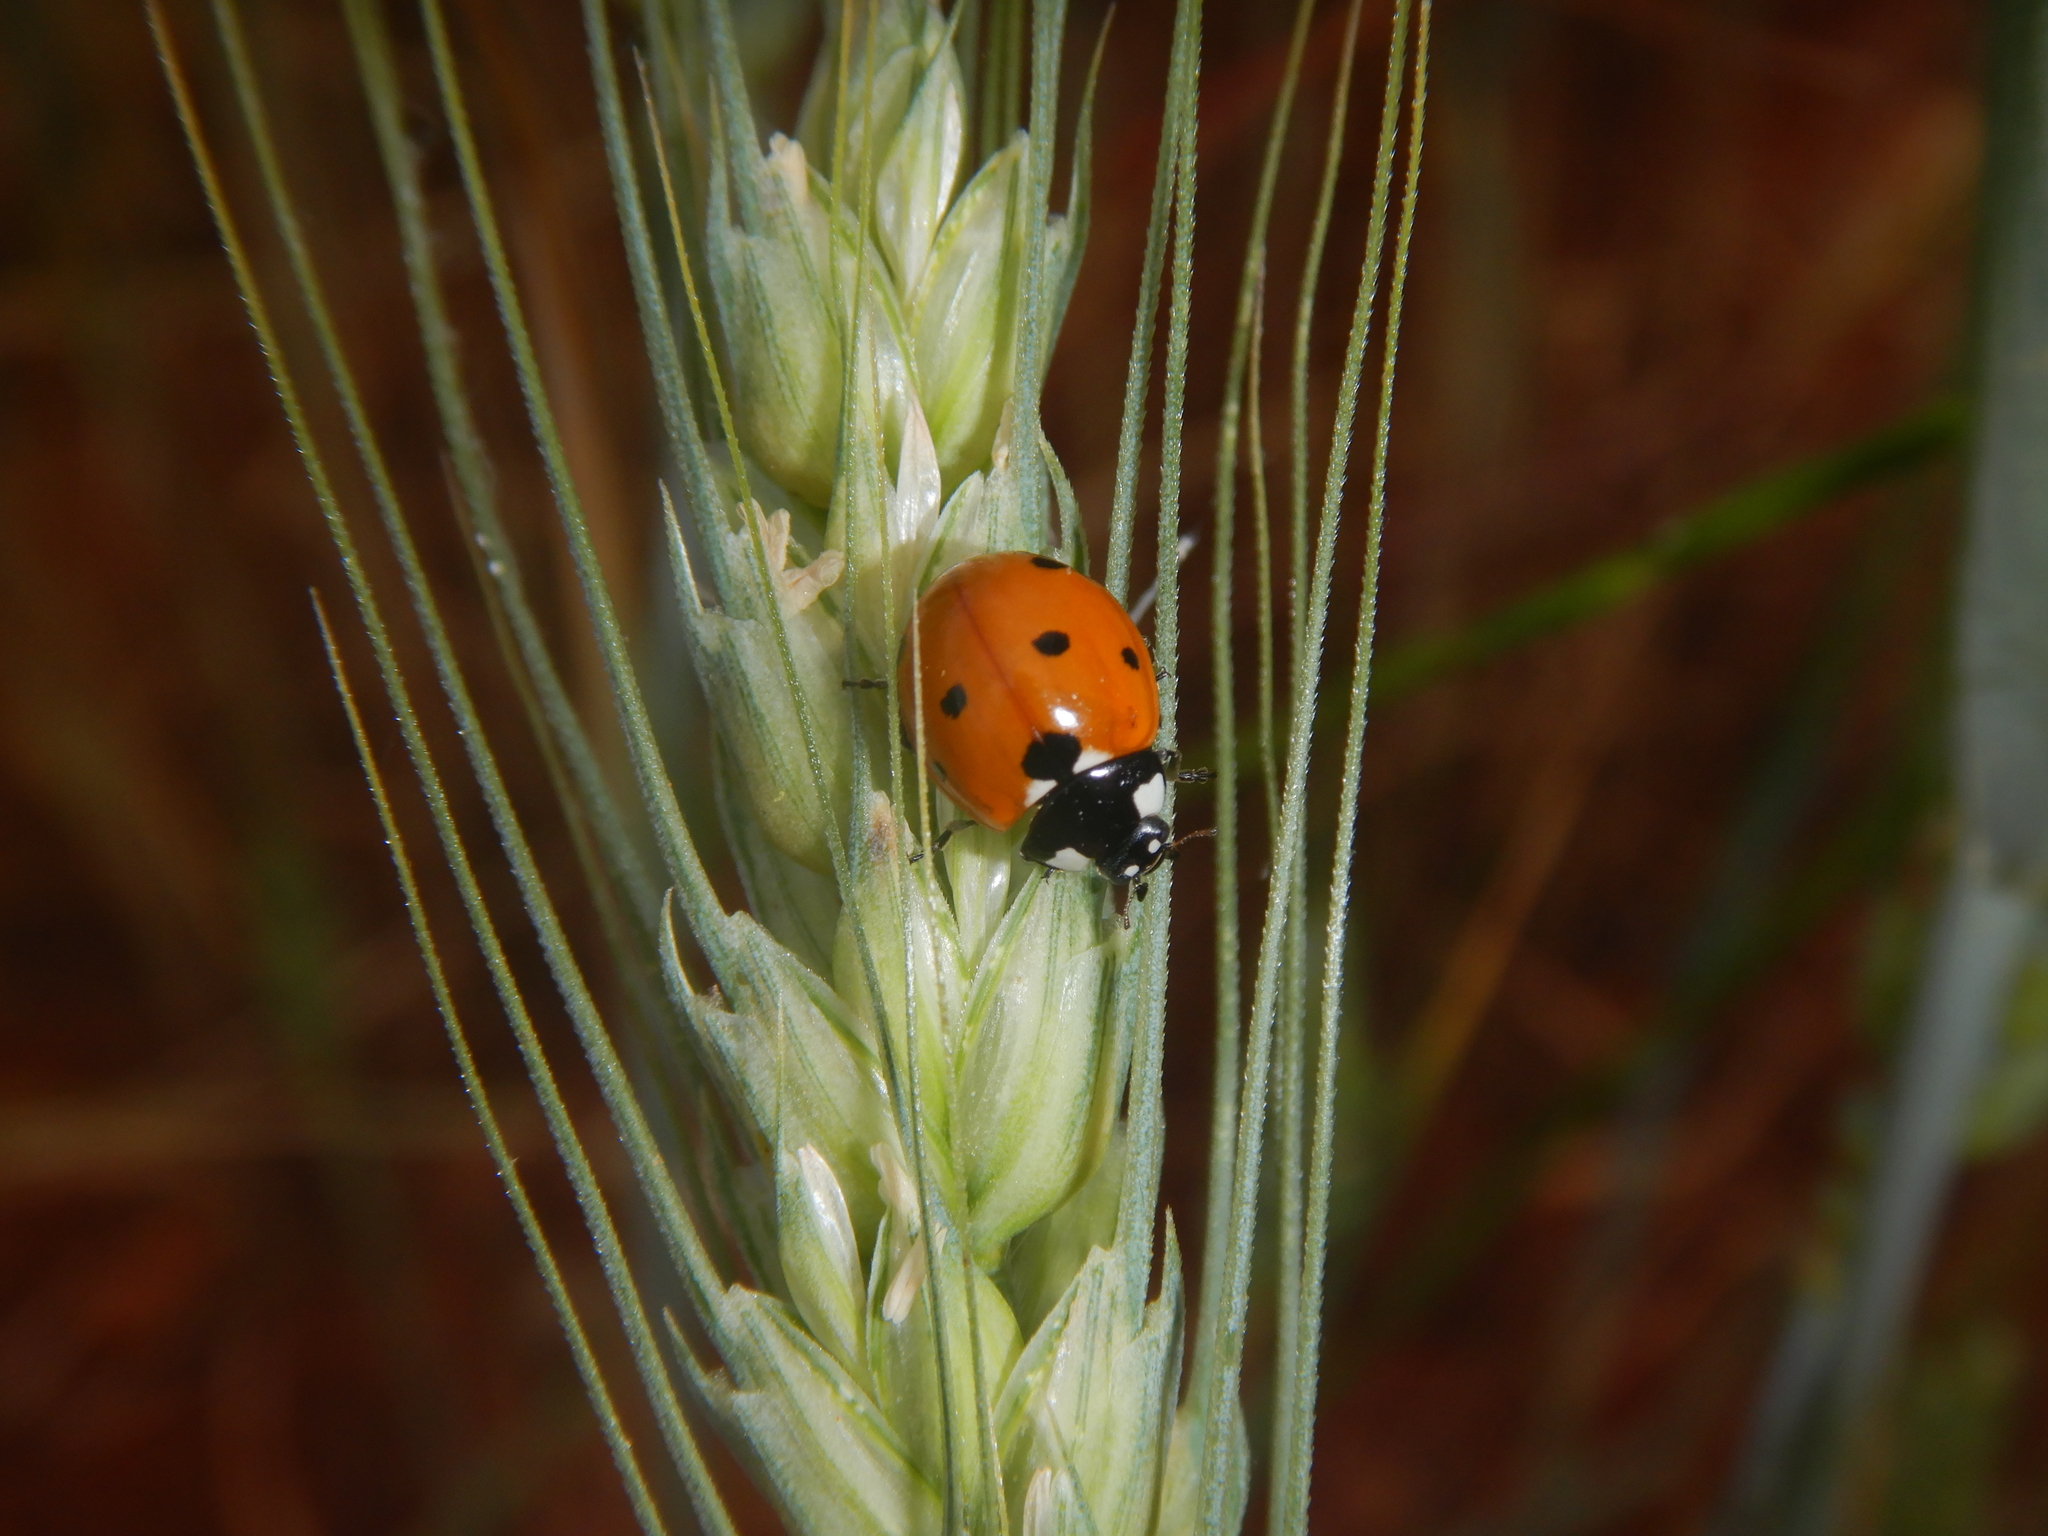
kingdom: Animalia
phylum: Arthropoda
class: Insecta
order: Coleoptera
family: Coccinellidae
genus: Coccinella
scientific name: Coccinella septempunctata
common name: Sevenspotted lady beetle
